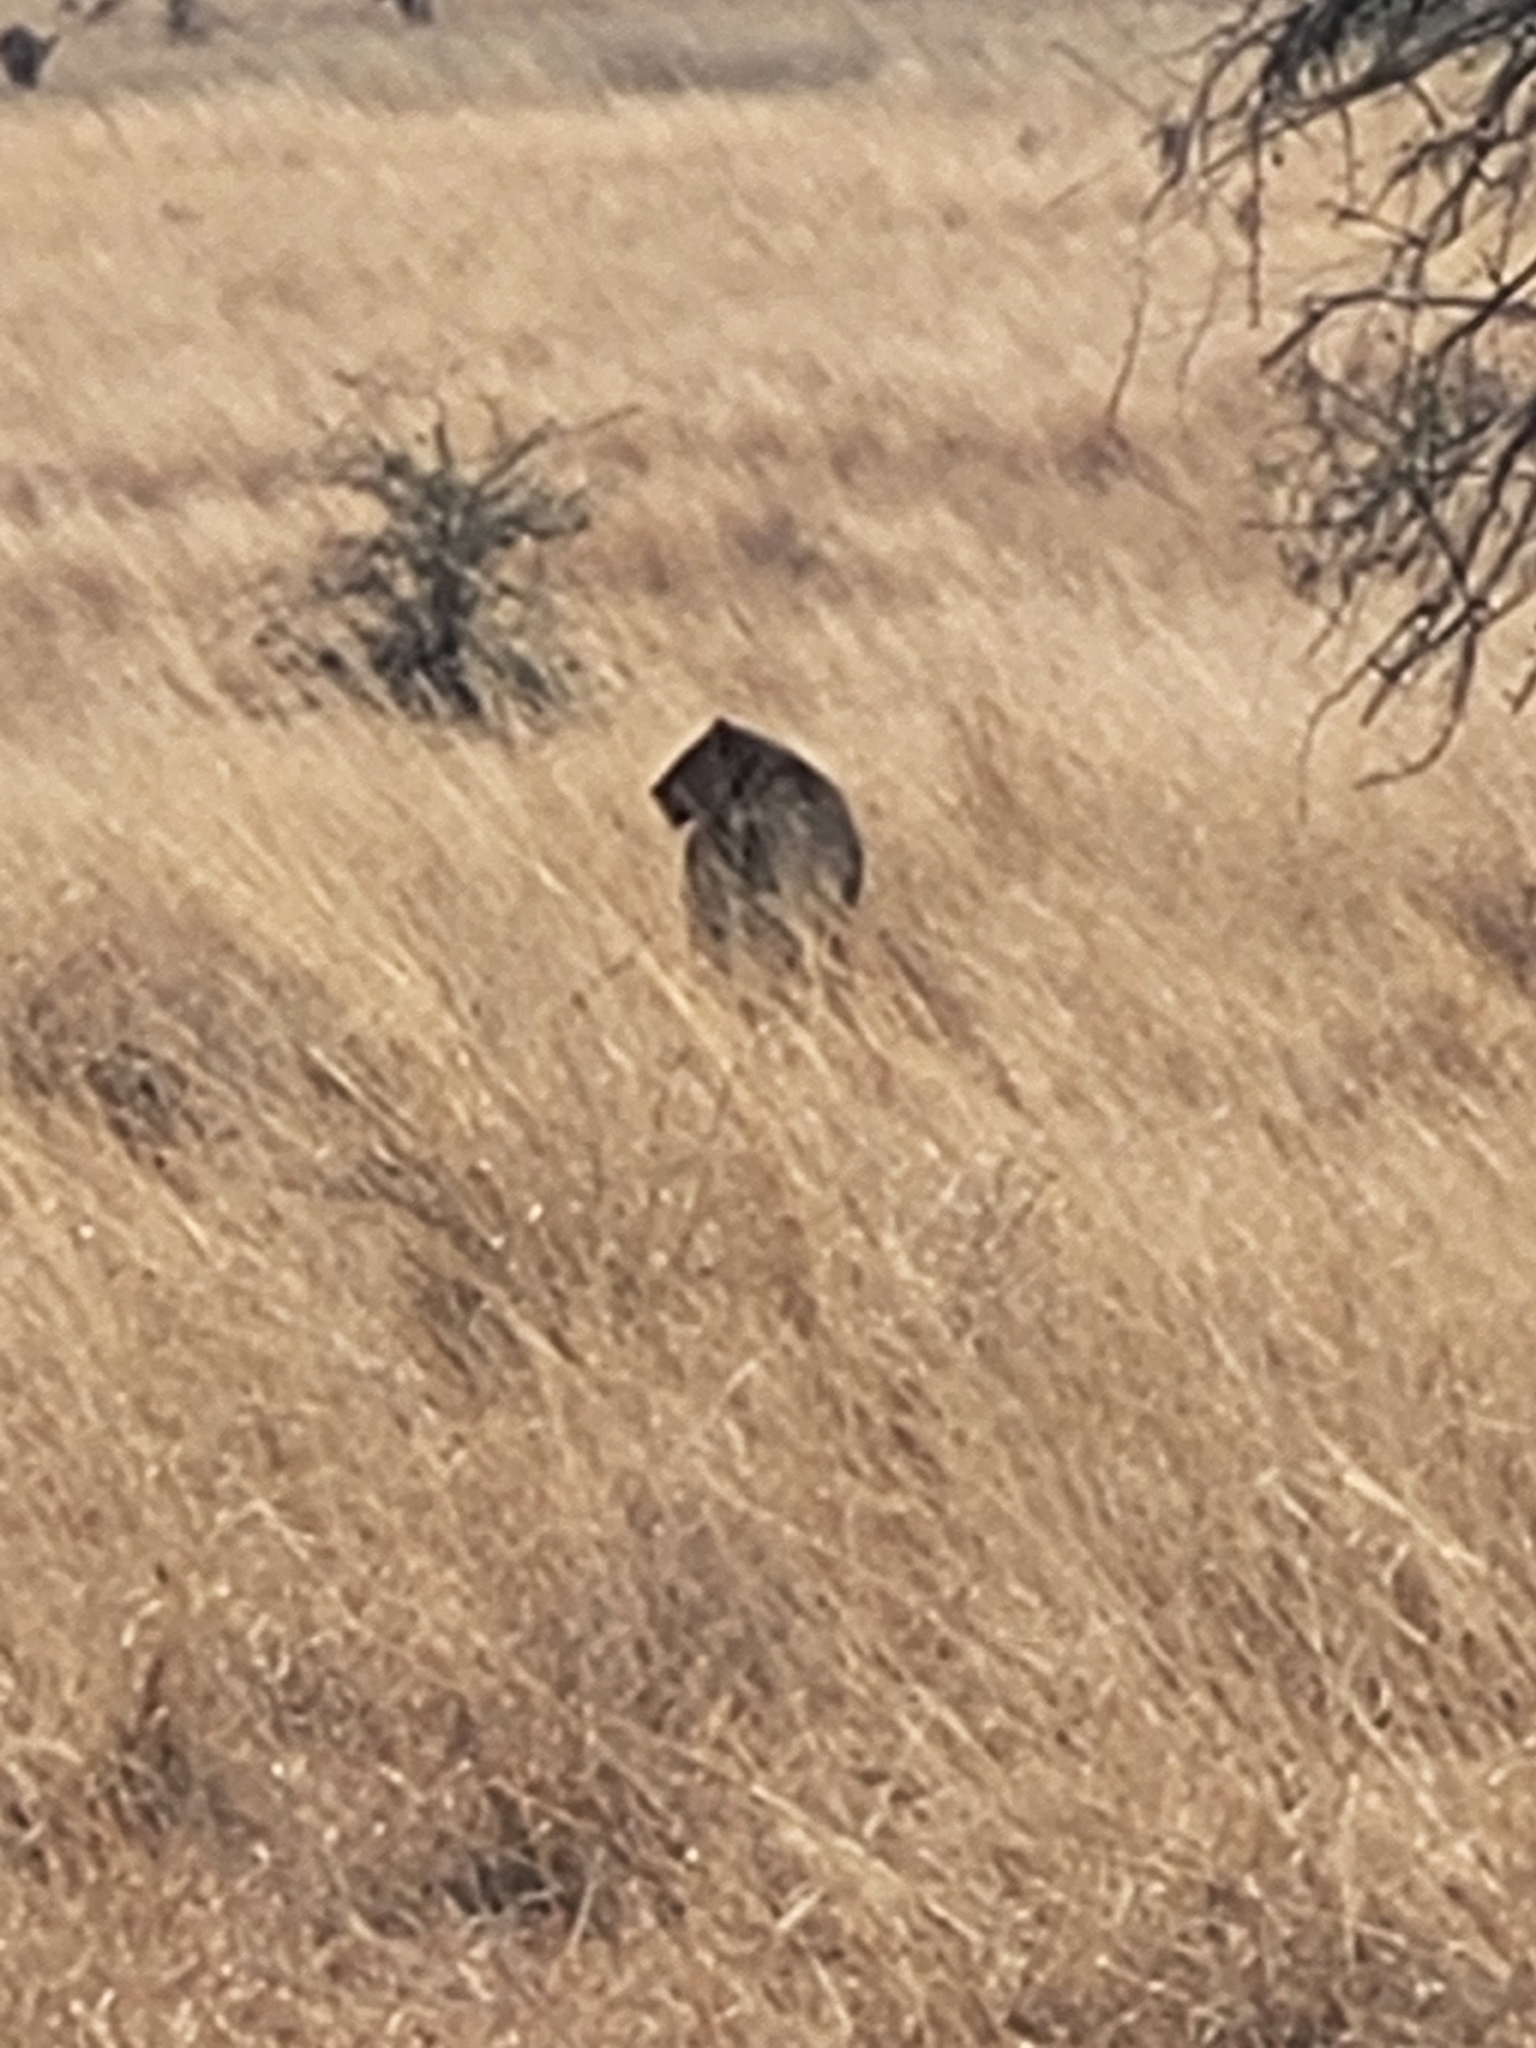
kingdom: Animalia
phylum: Chordata
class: Mammalia
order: Carnivora
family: Felidae
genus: Panthera
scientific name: Panthera leo
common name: Lion
